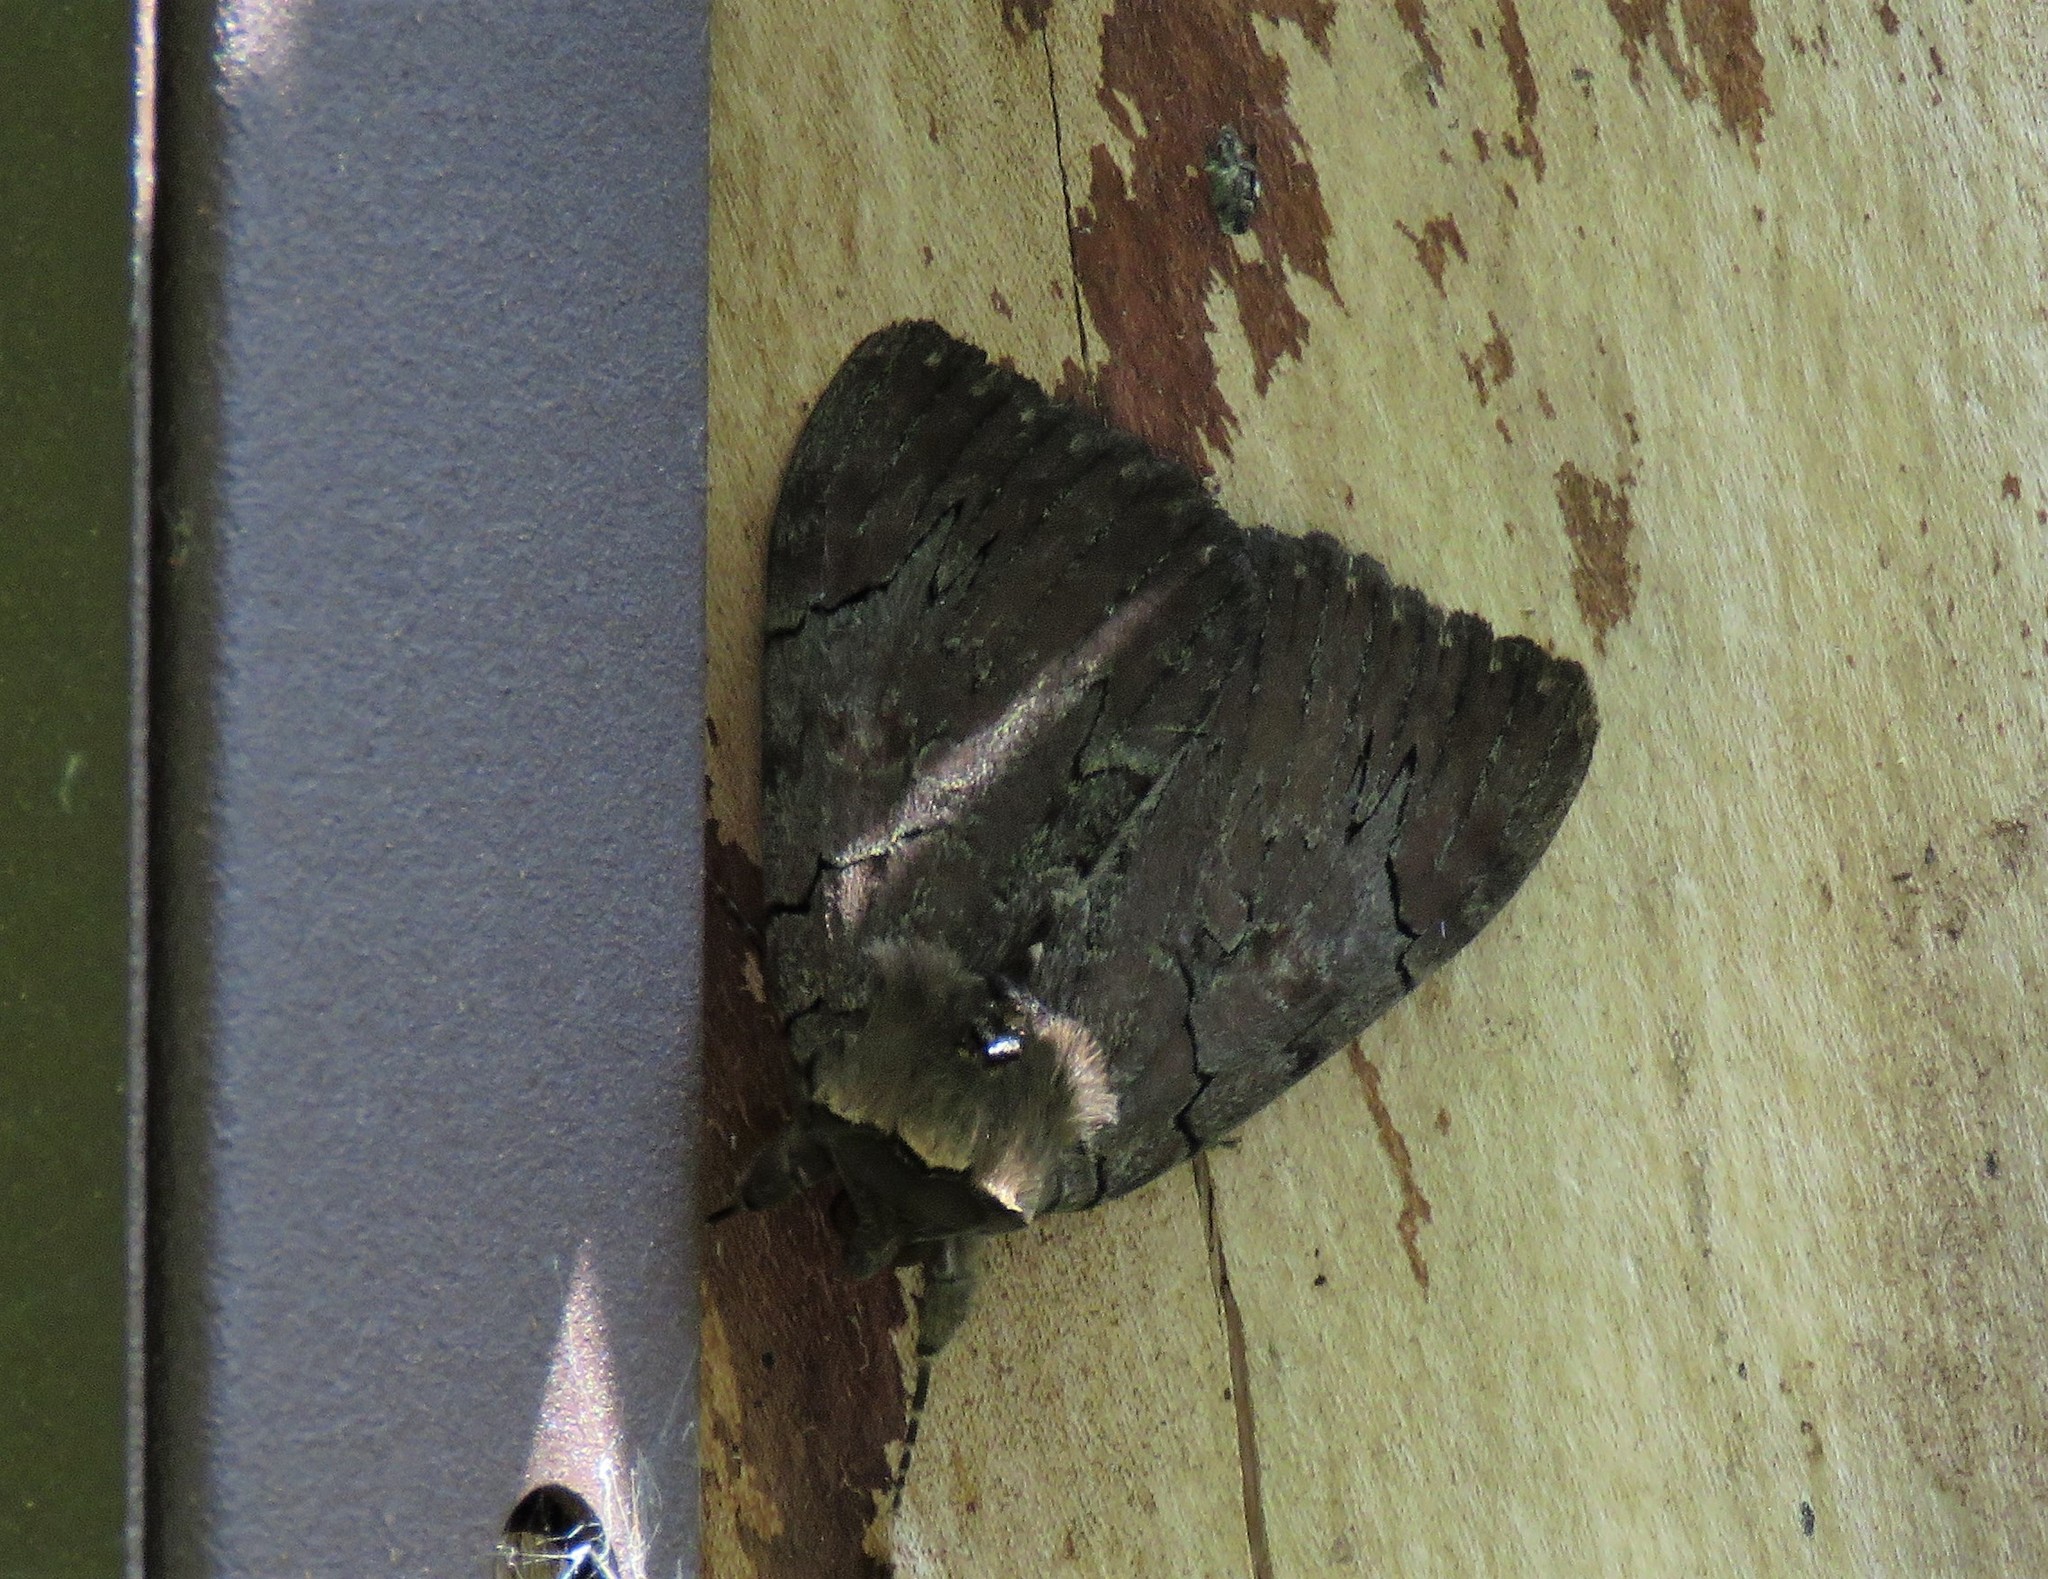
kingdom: Animalia
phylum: Arthropoda
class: Insecta
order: Lepidoptera
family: Erebidae
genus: Catocala
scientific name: Catocala cara
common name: Darling underwing
